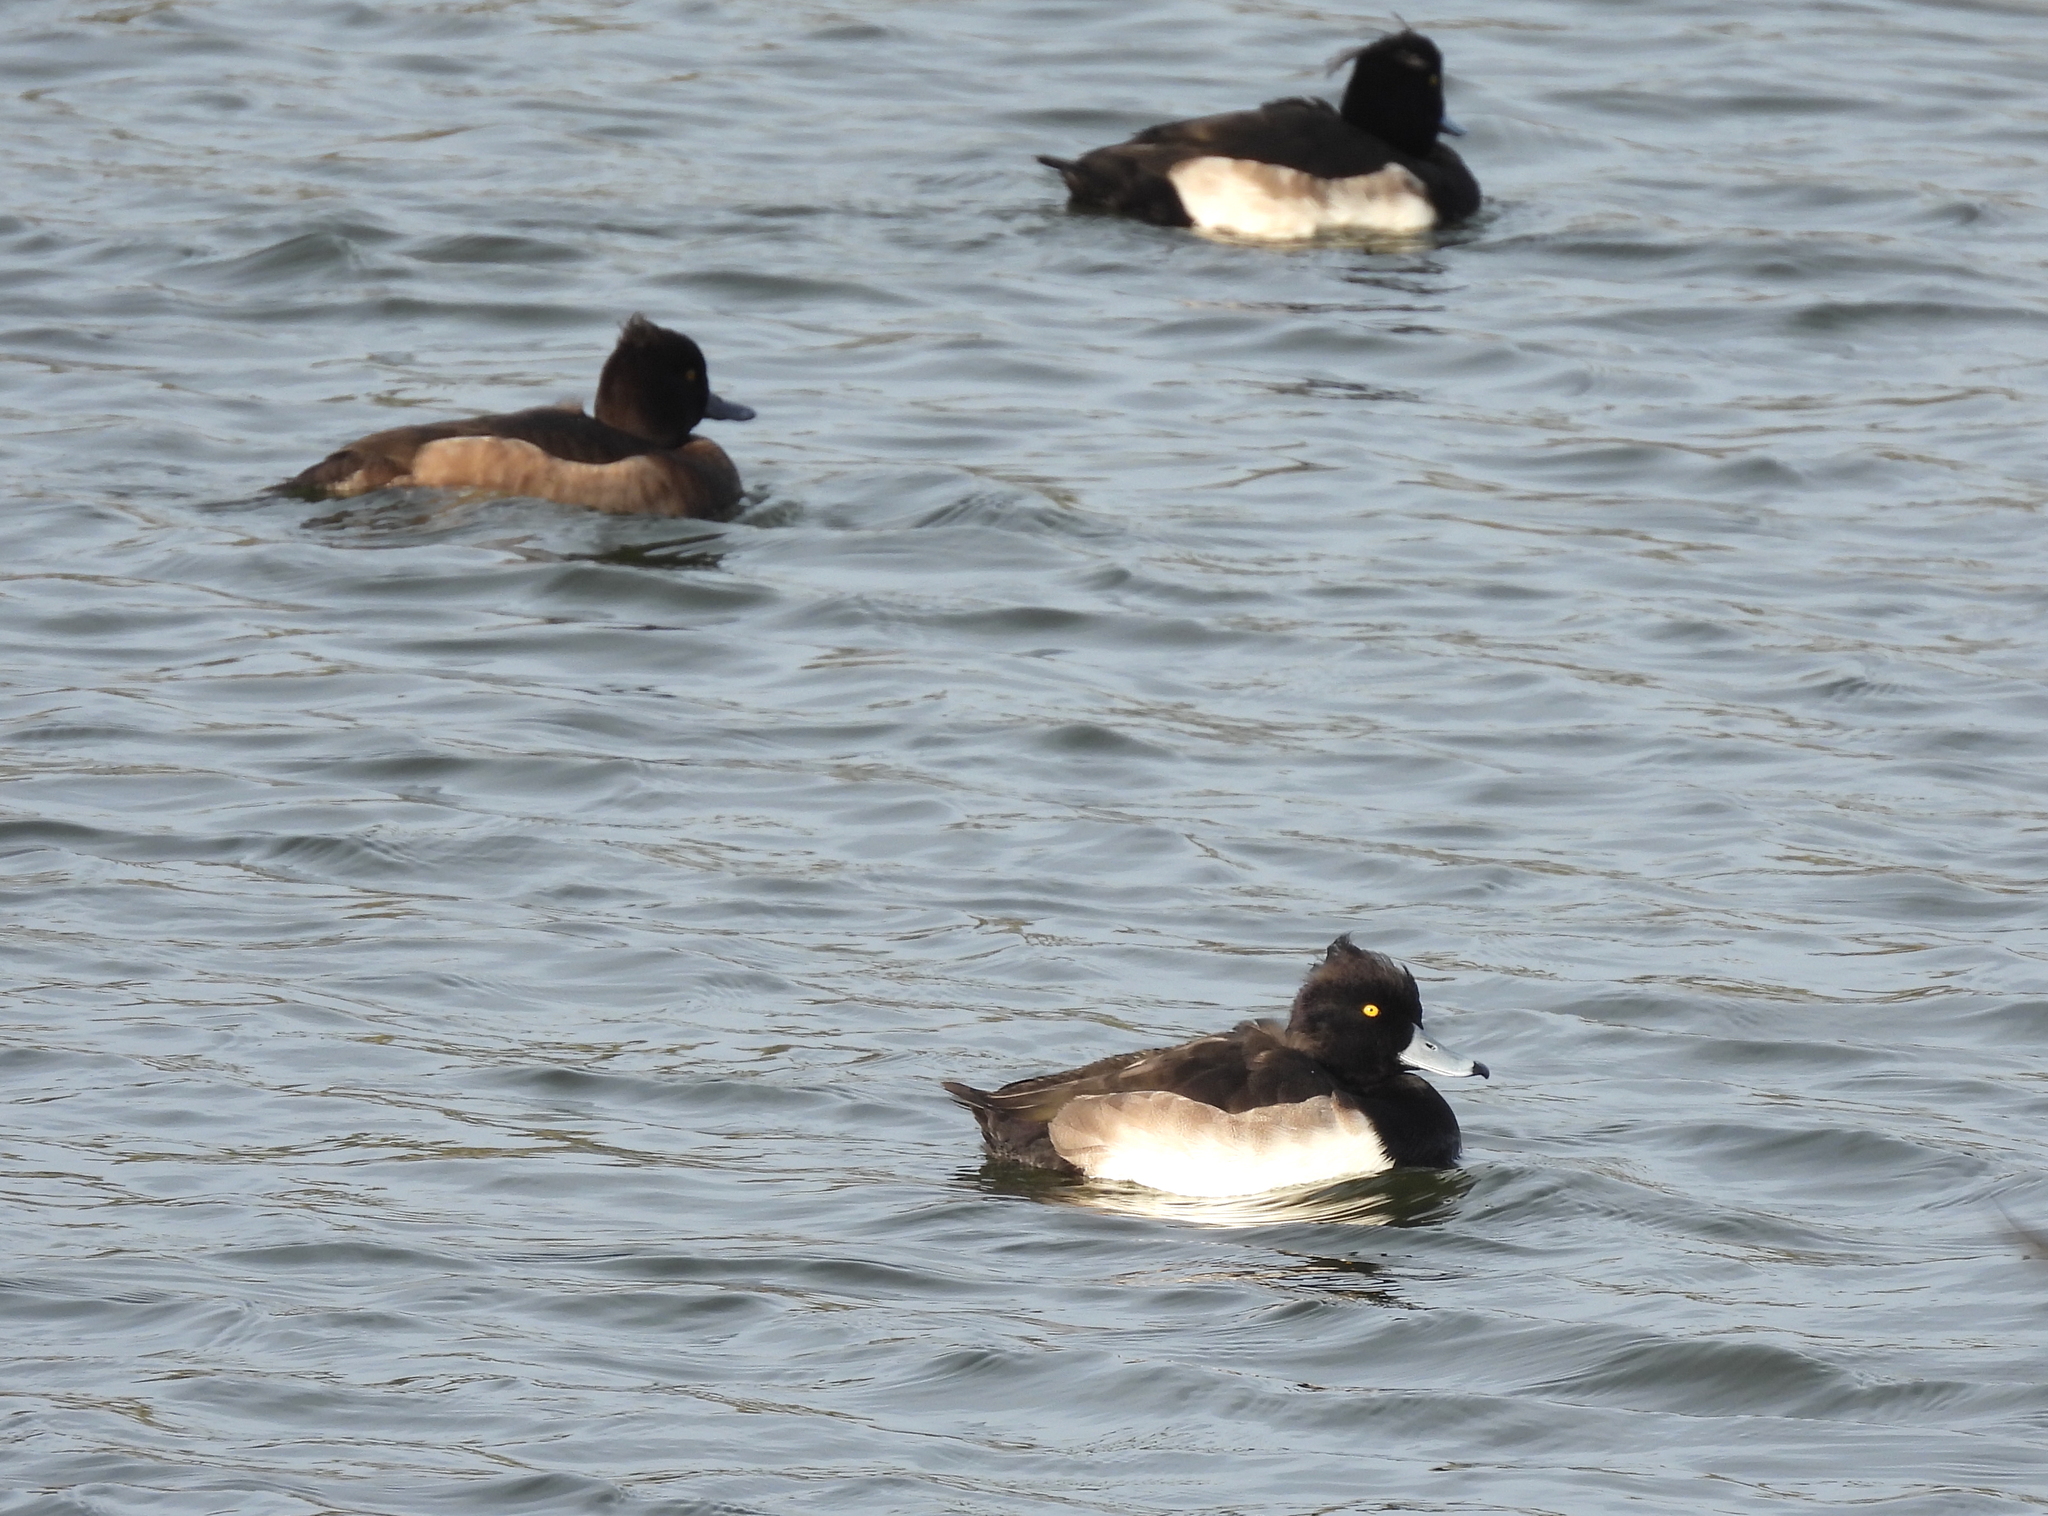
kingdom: Animalia
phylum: Chordata
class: Aves
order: Anseriformes
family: Anatidae
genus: Aythya
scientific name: Aythya fuligula
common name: Tufted duck
